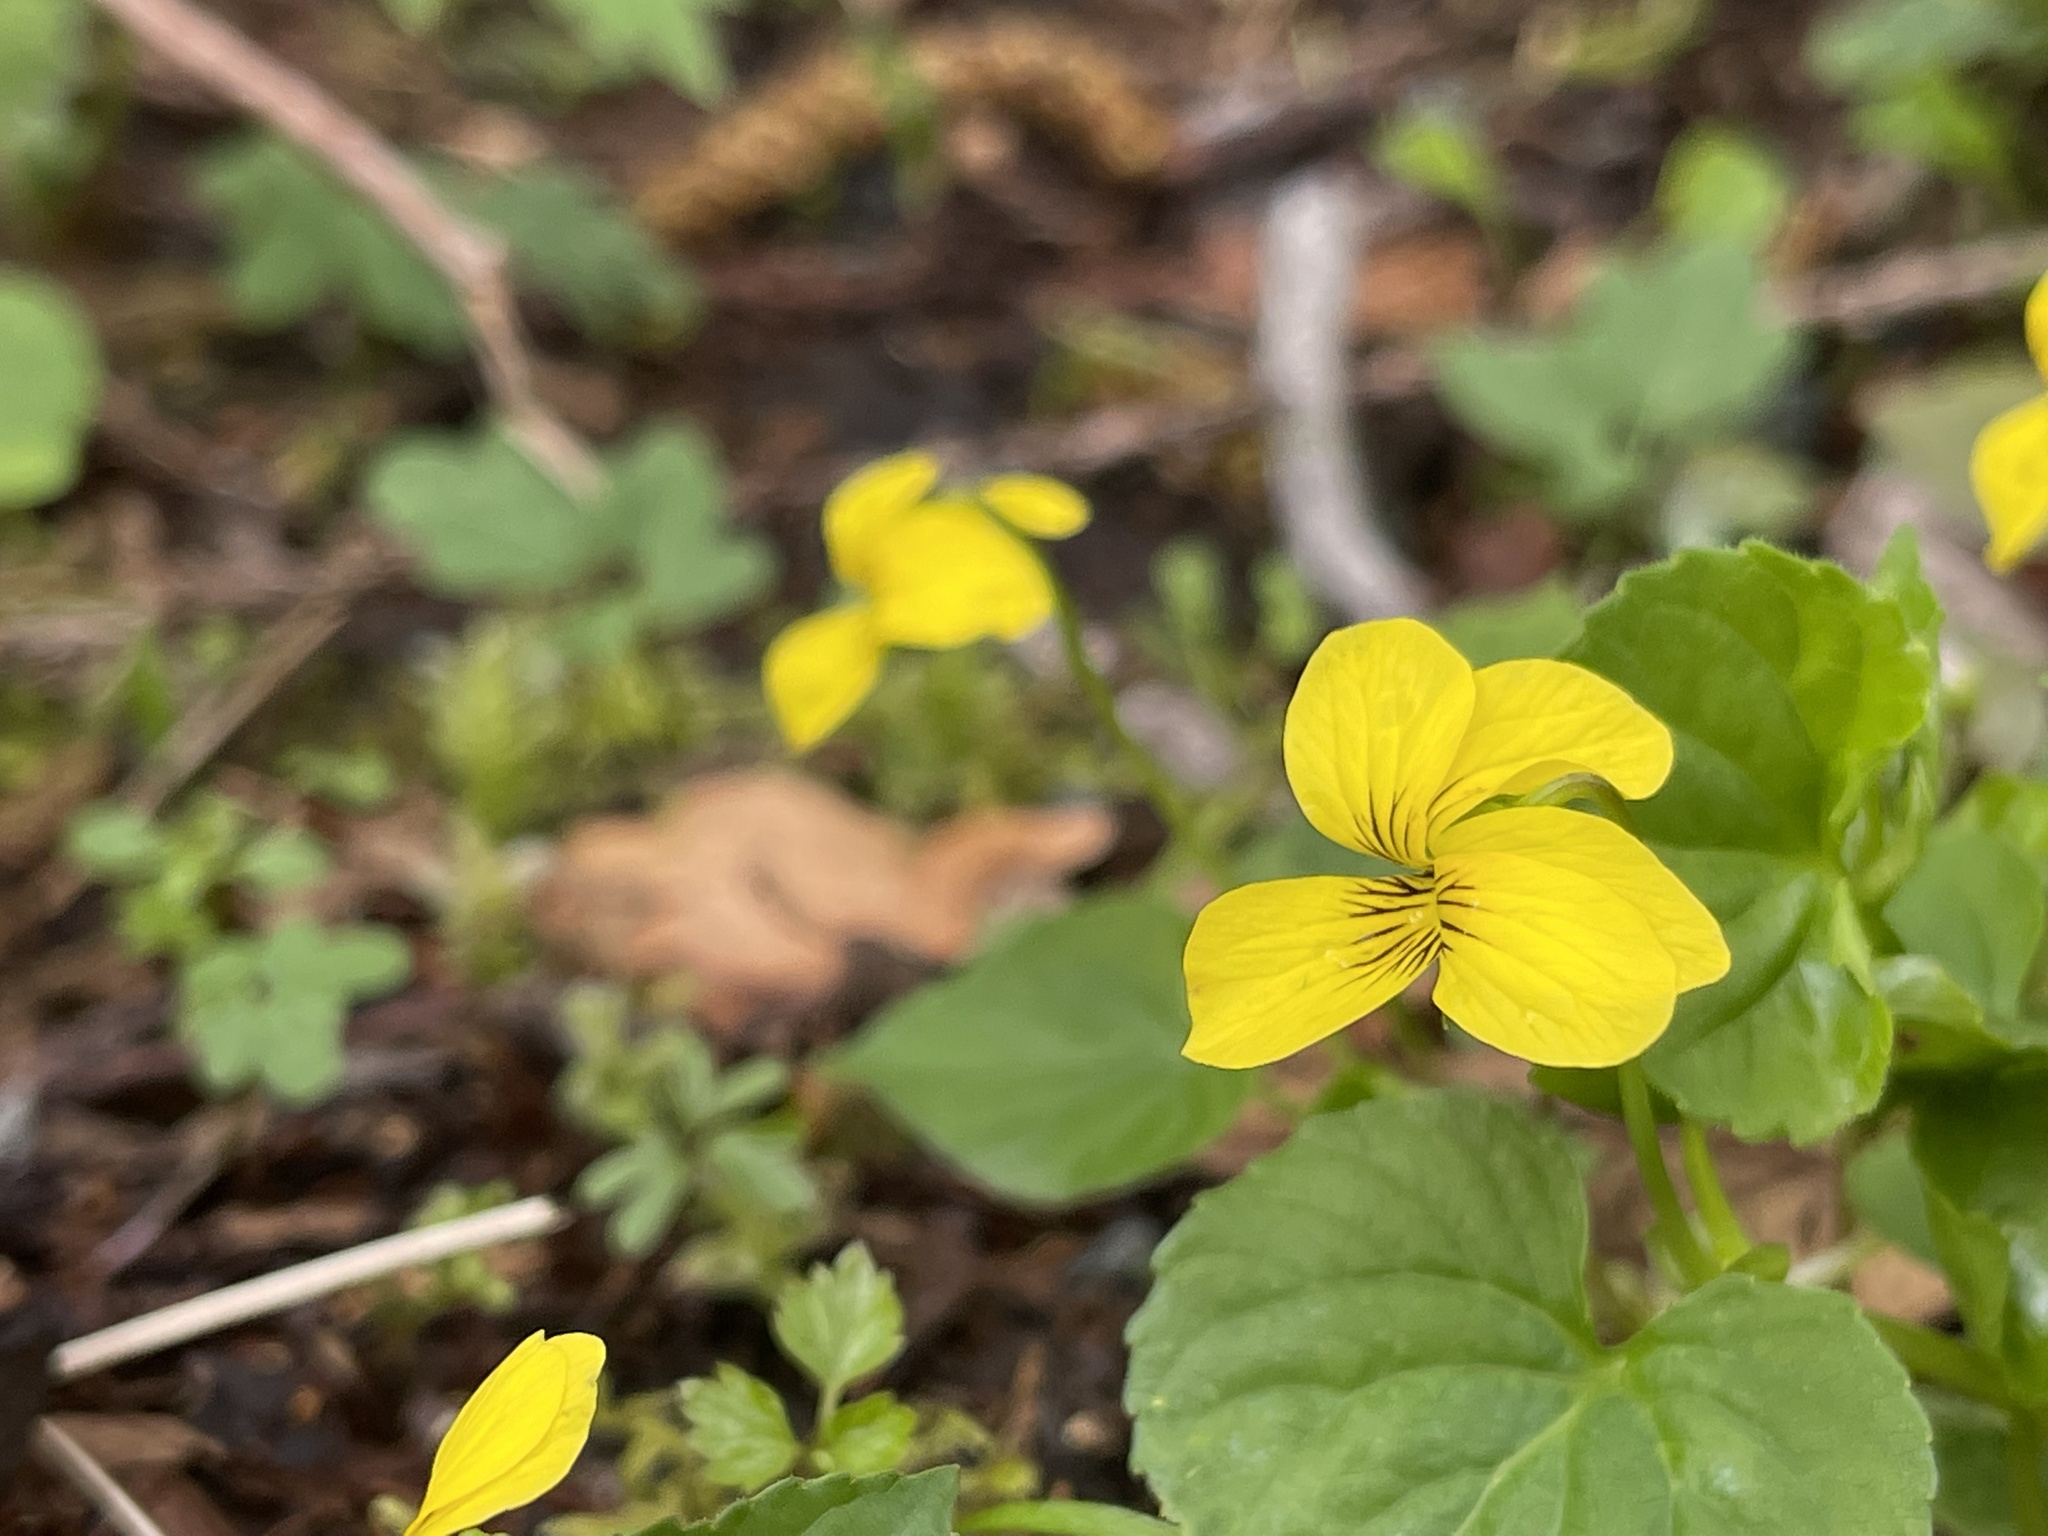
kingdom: Plantae
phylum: Tracheophyta
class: Magnoliopsida
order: Malpighiales
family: Violaceae
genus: Viola
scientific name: Viola glabella
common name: Stream violet
